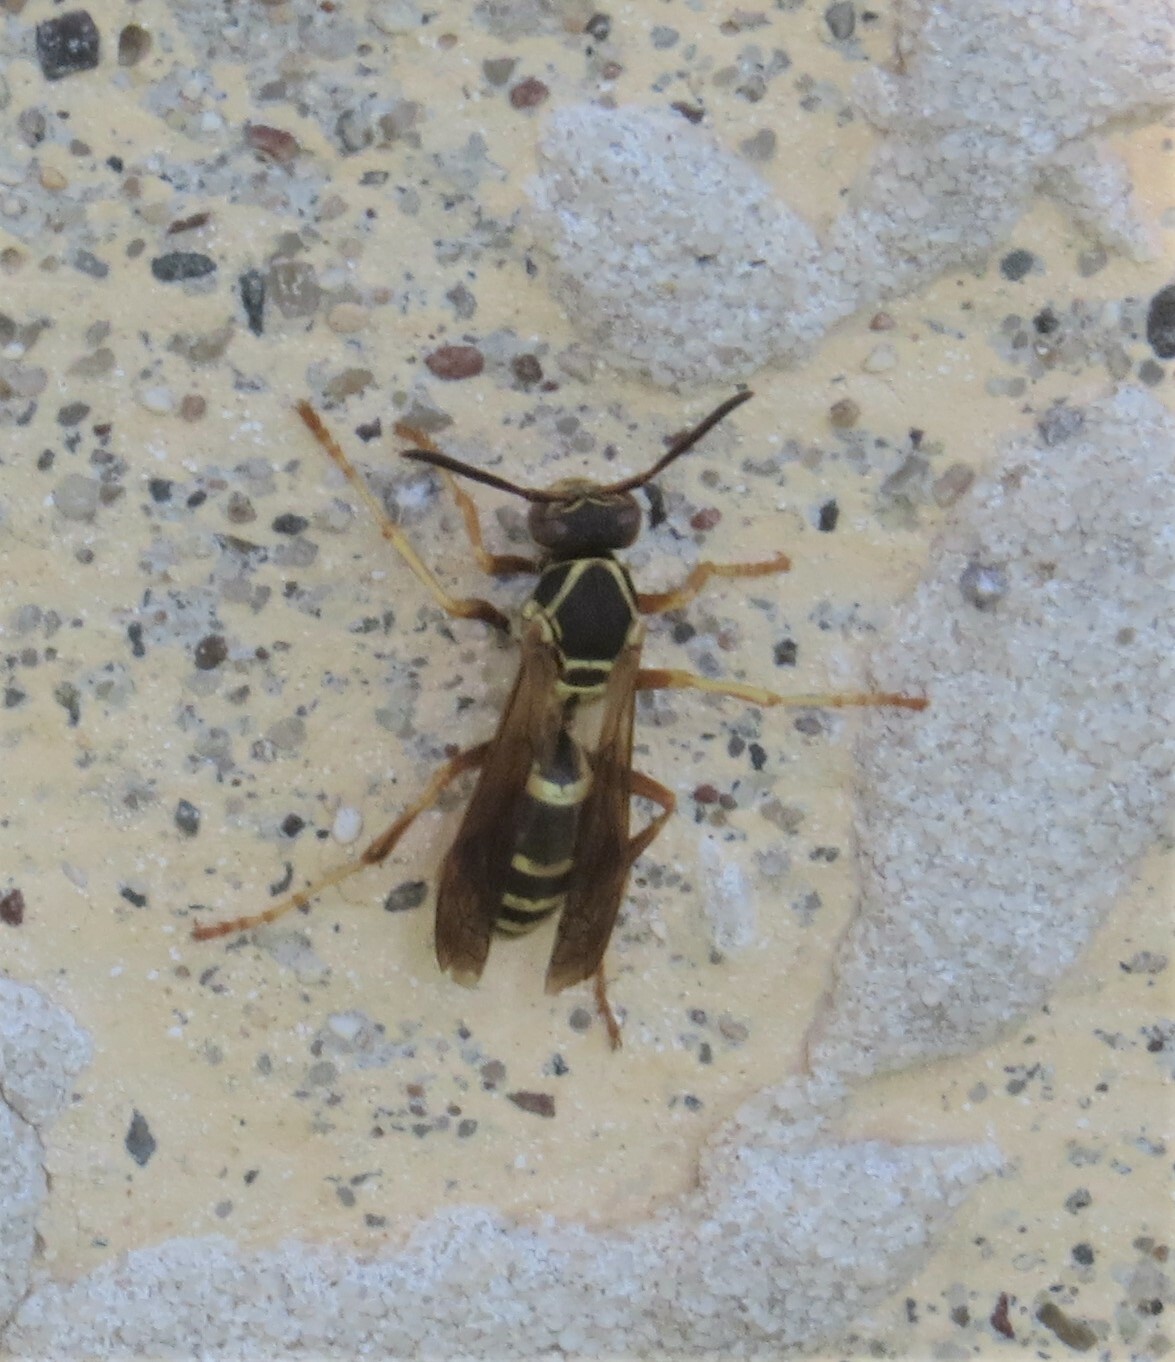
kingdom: Animalia
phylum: Arthropoda
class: Insecta
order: Hymenoptera
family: Eumenidae
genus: Polistes
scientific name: Polistes fuscatus
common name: Dark paper wasp
